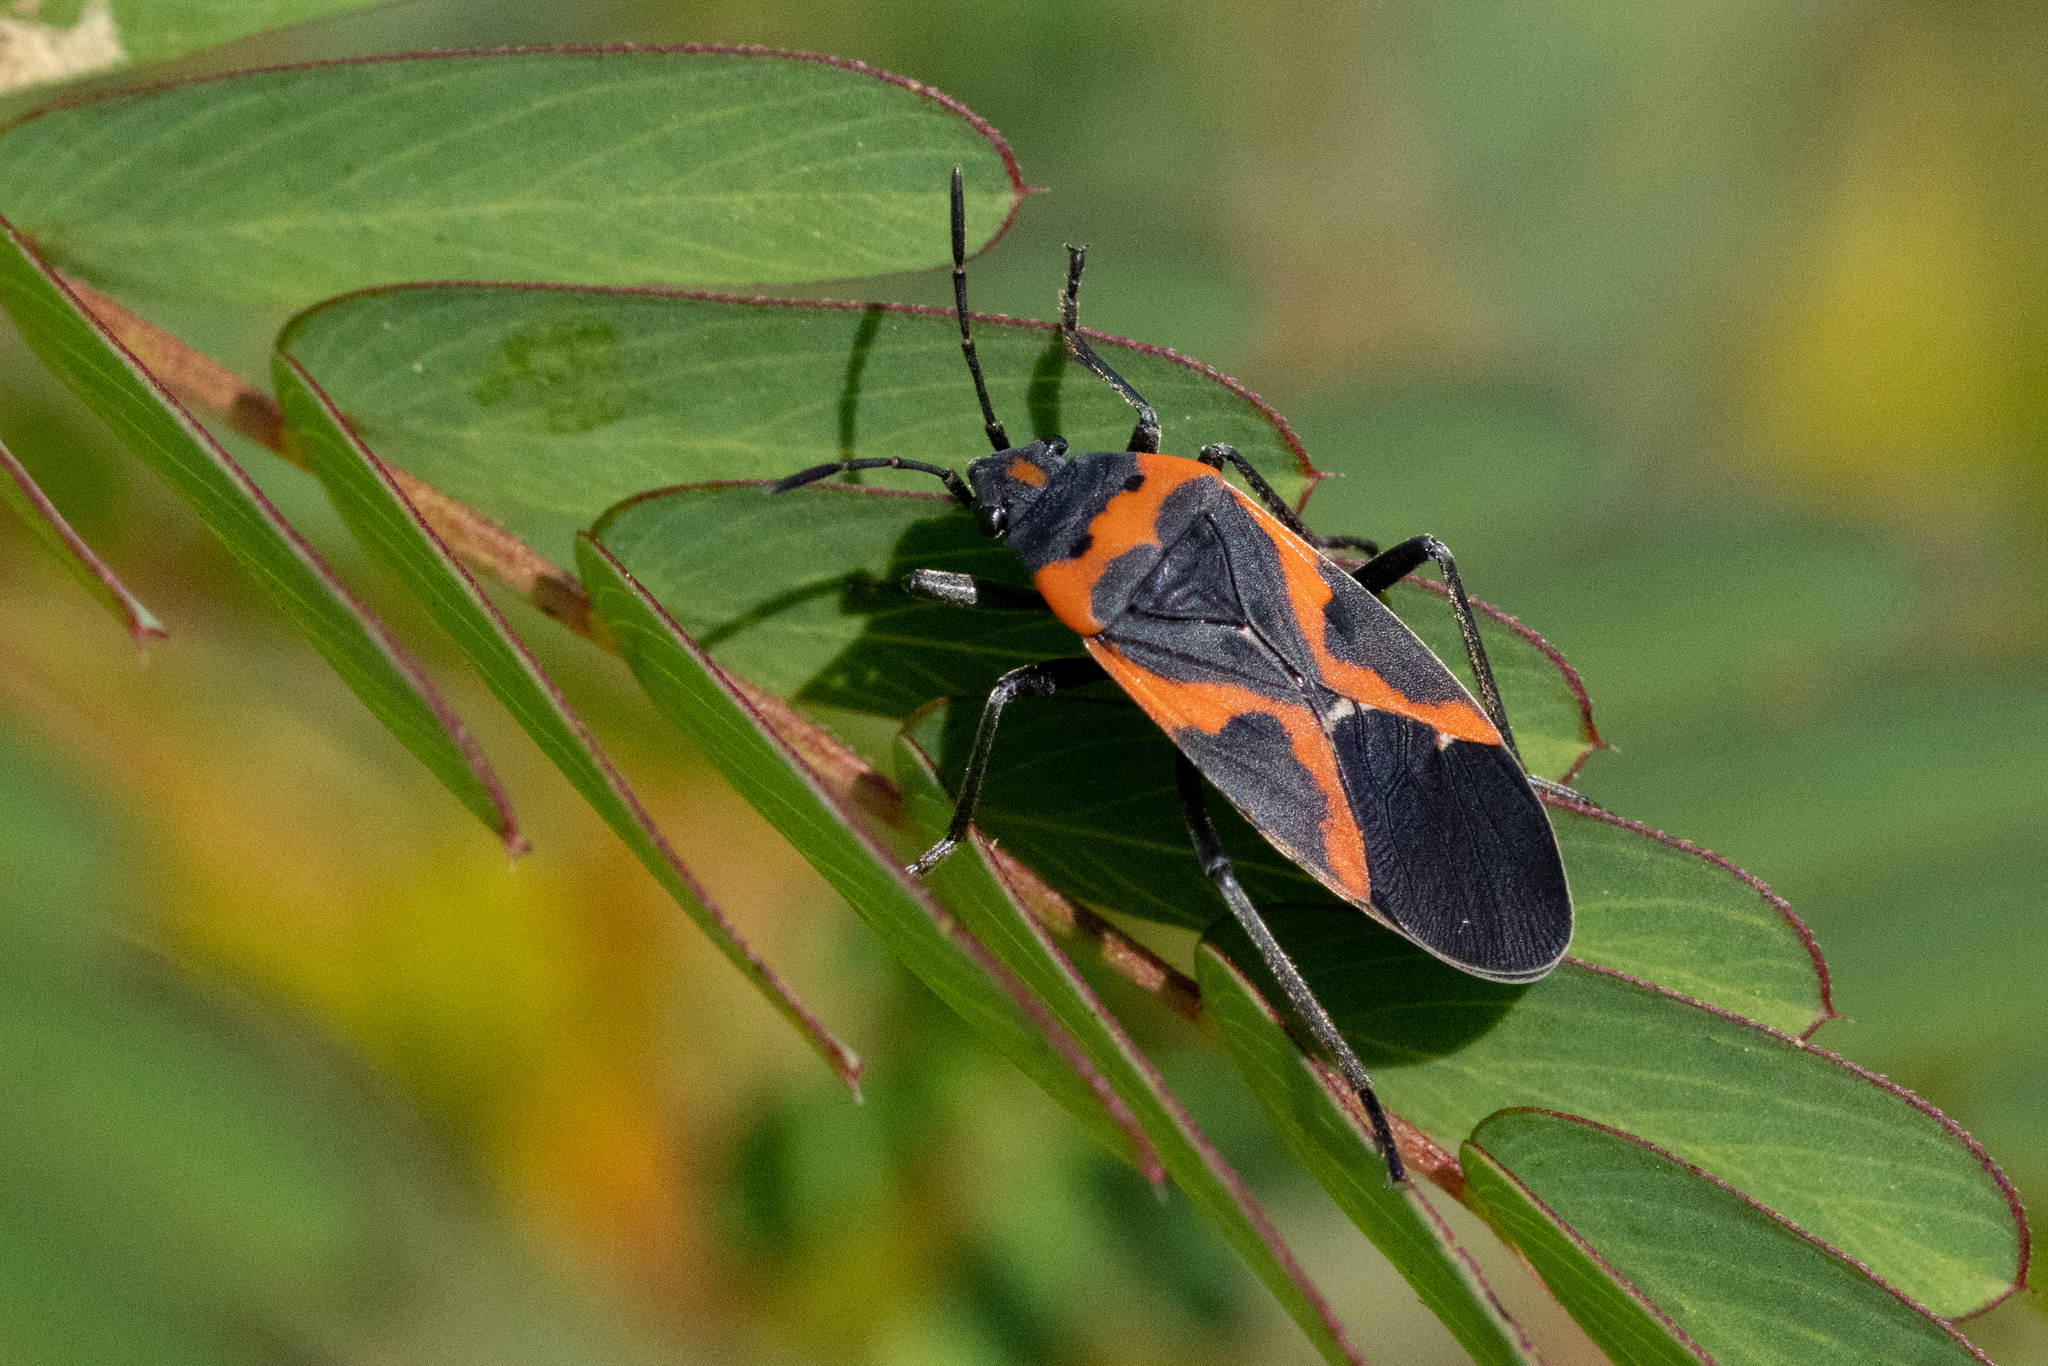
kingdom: Animalia
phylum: Arthropoda
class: Insecta
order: Hemiptera
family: Lygaeidae
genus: Lygaeus
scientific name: Lygaeus kalmii
